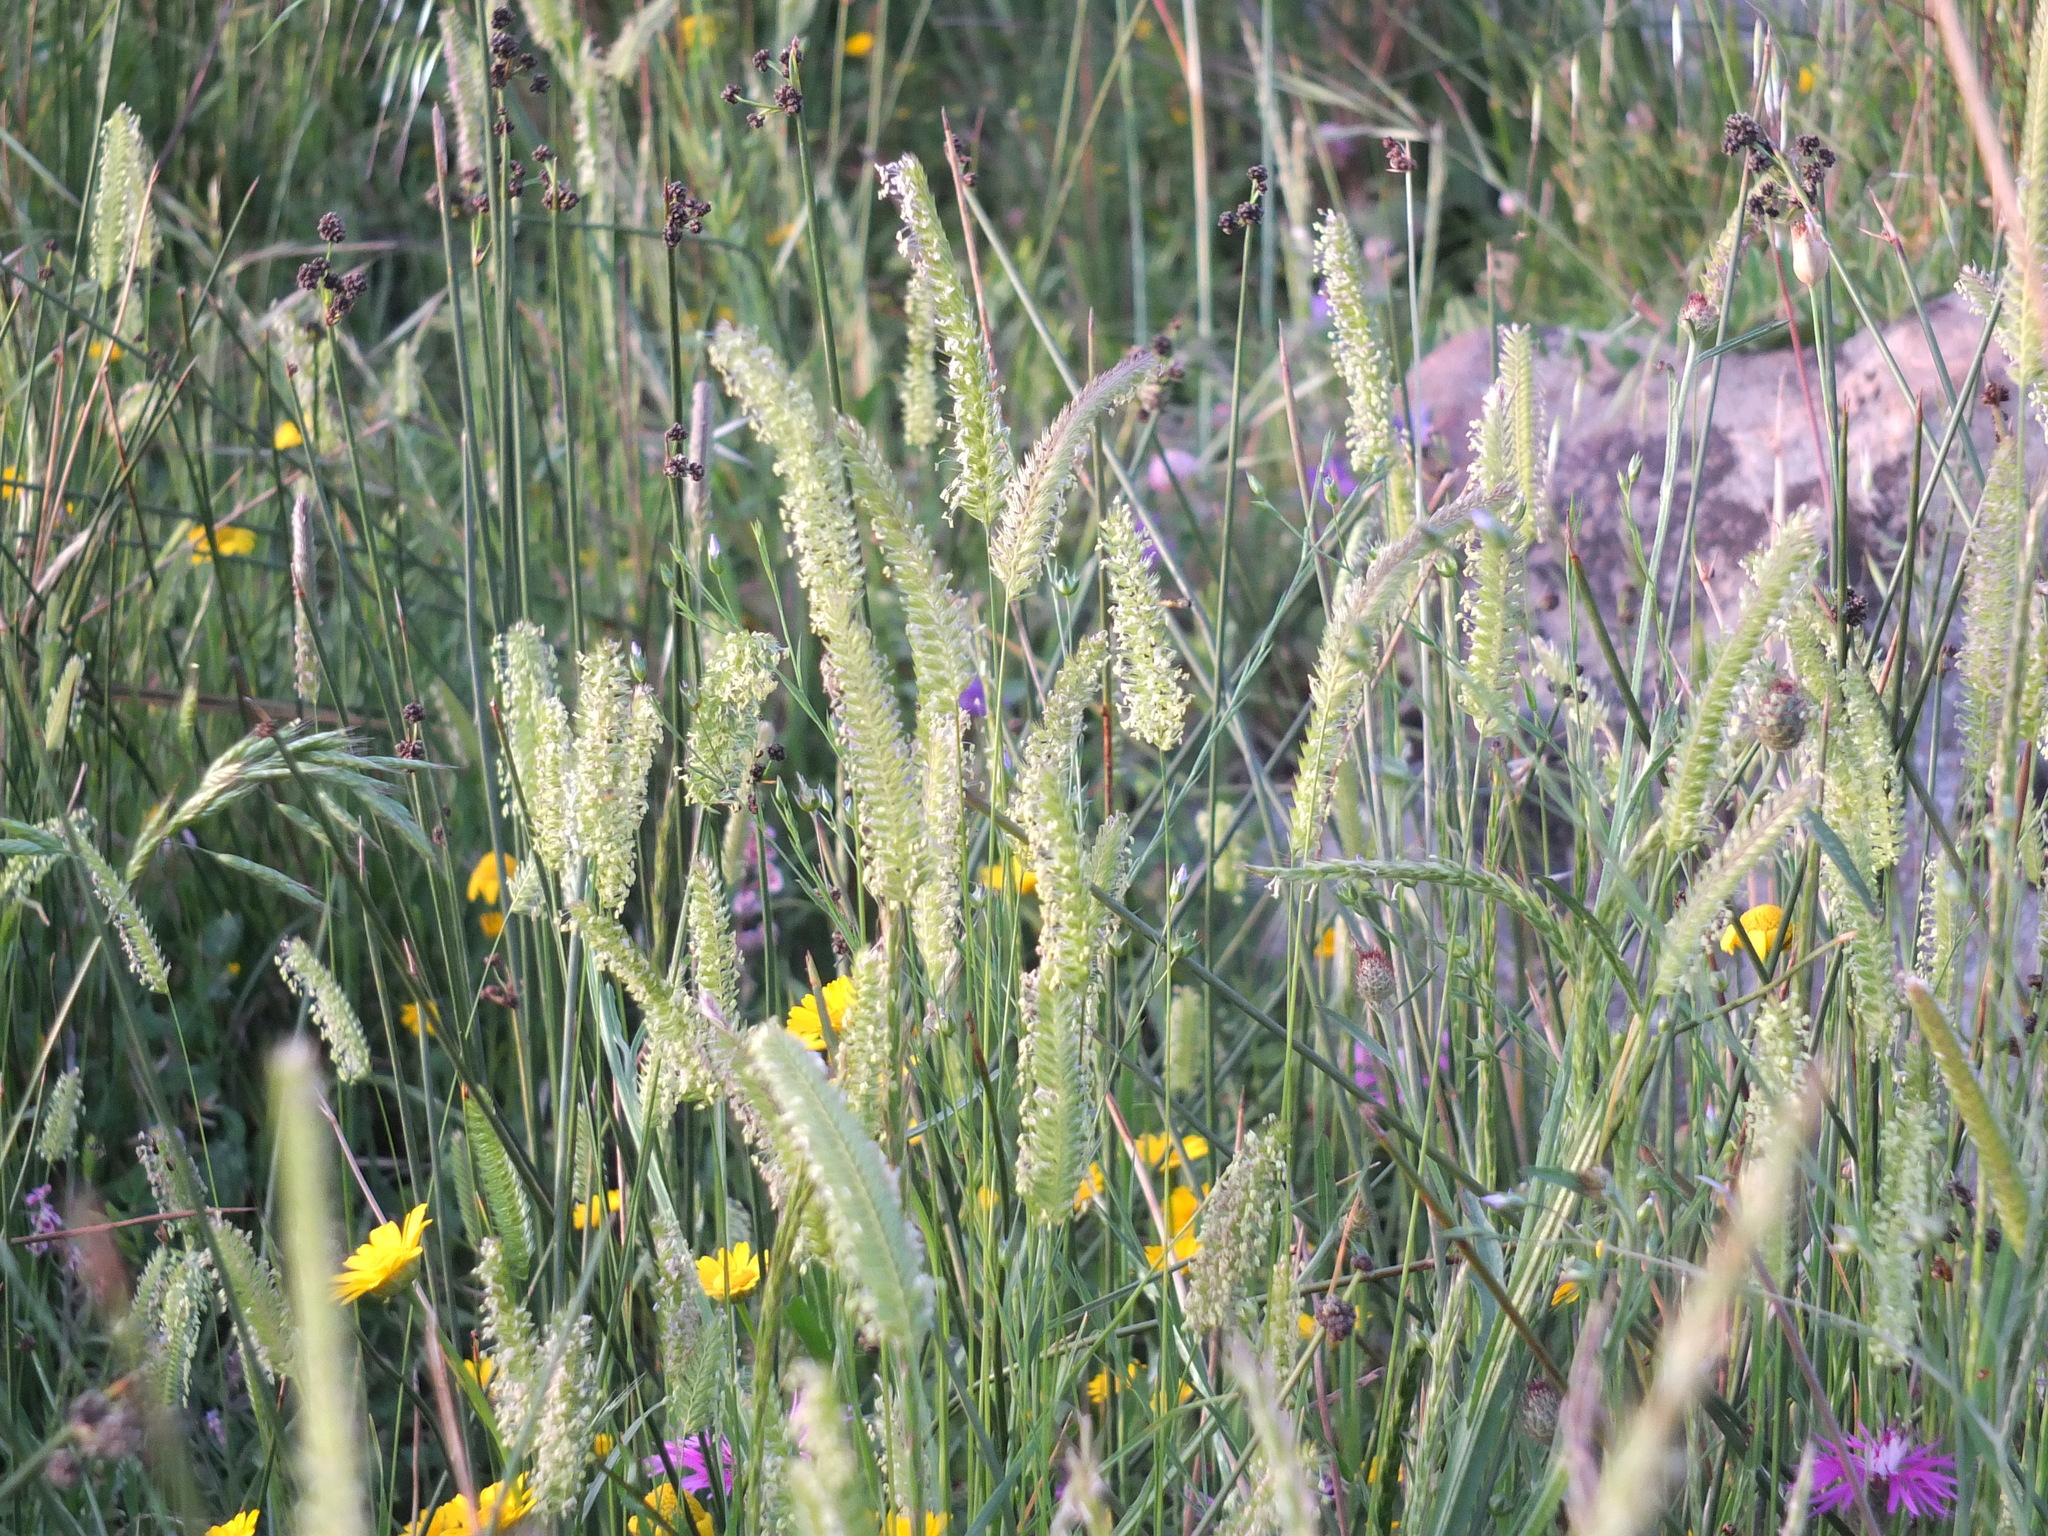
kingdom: Plantae
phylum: Tracheophyta
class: Liliopsida
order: Poales
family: Poaceae
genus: Cynosurus
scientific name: Cynosurus polybracteatus
